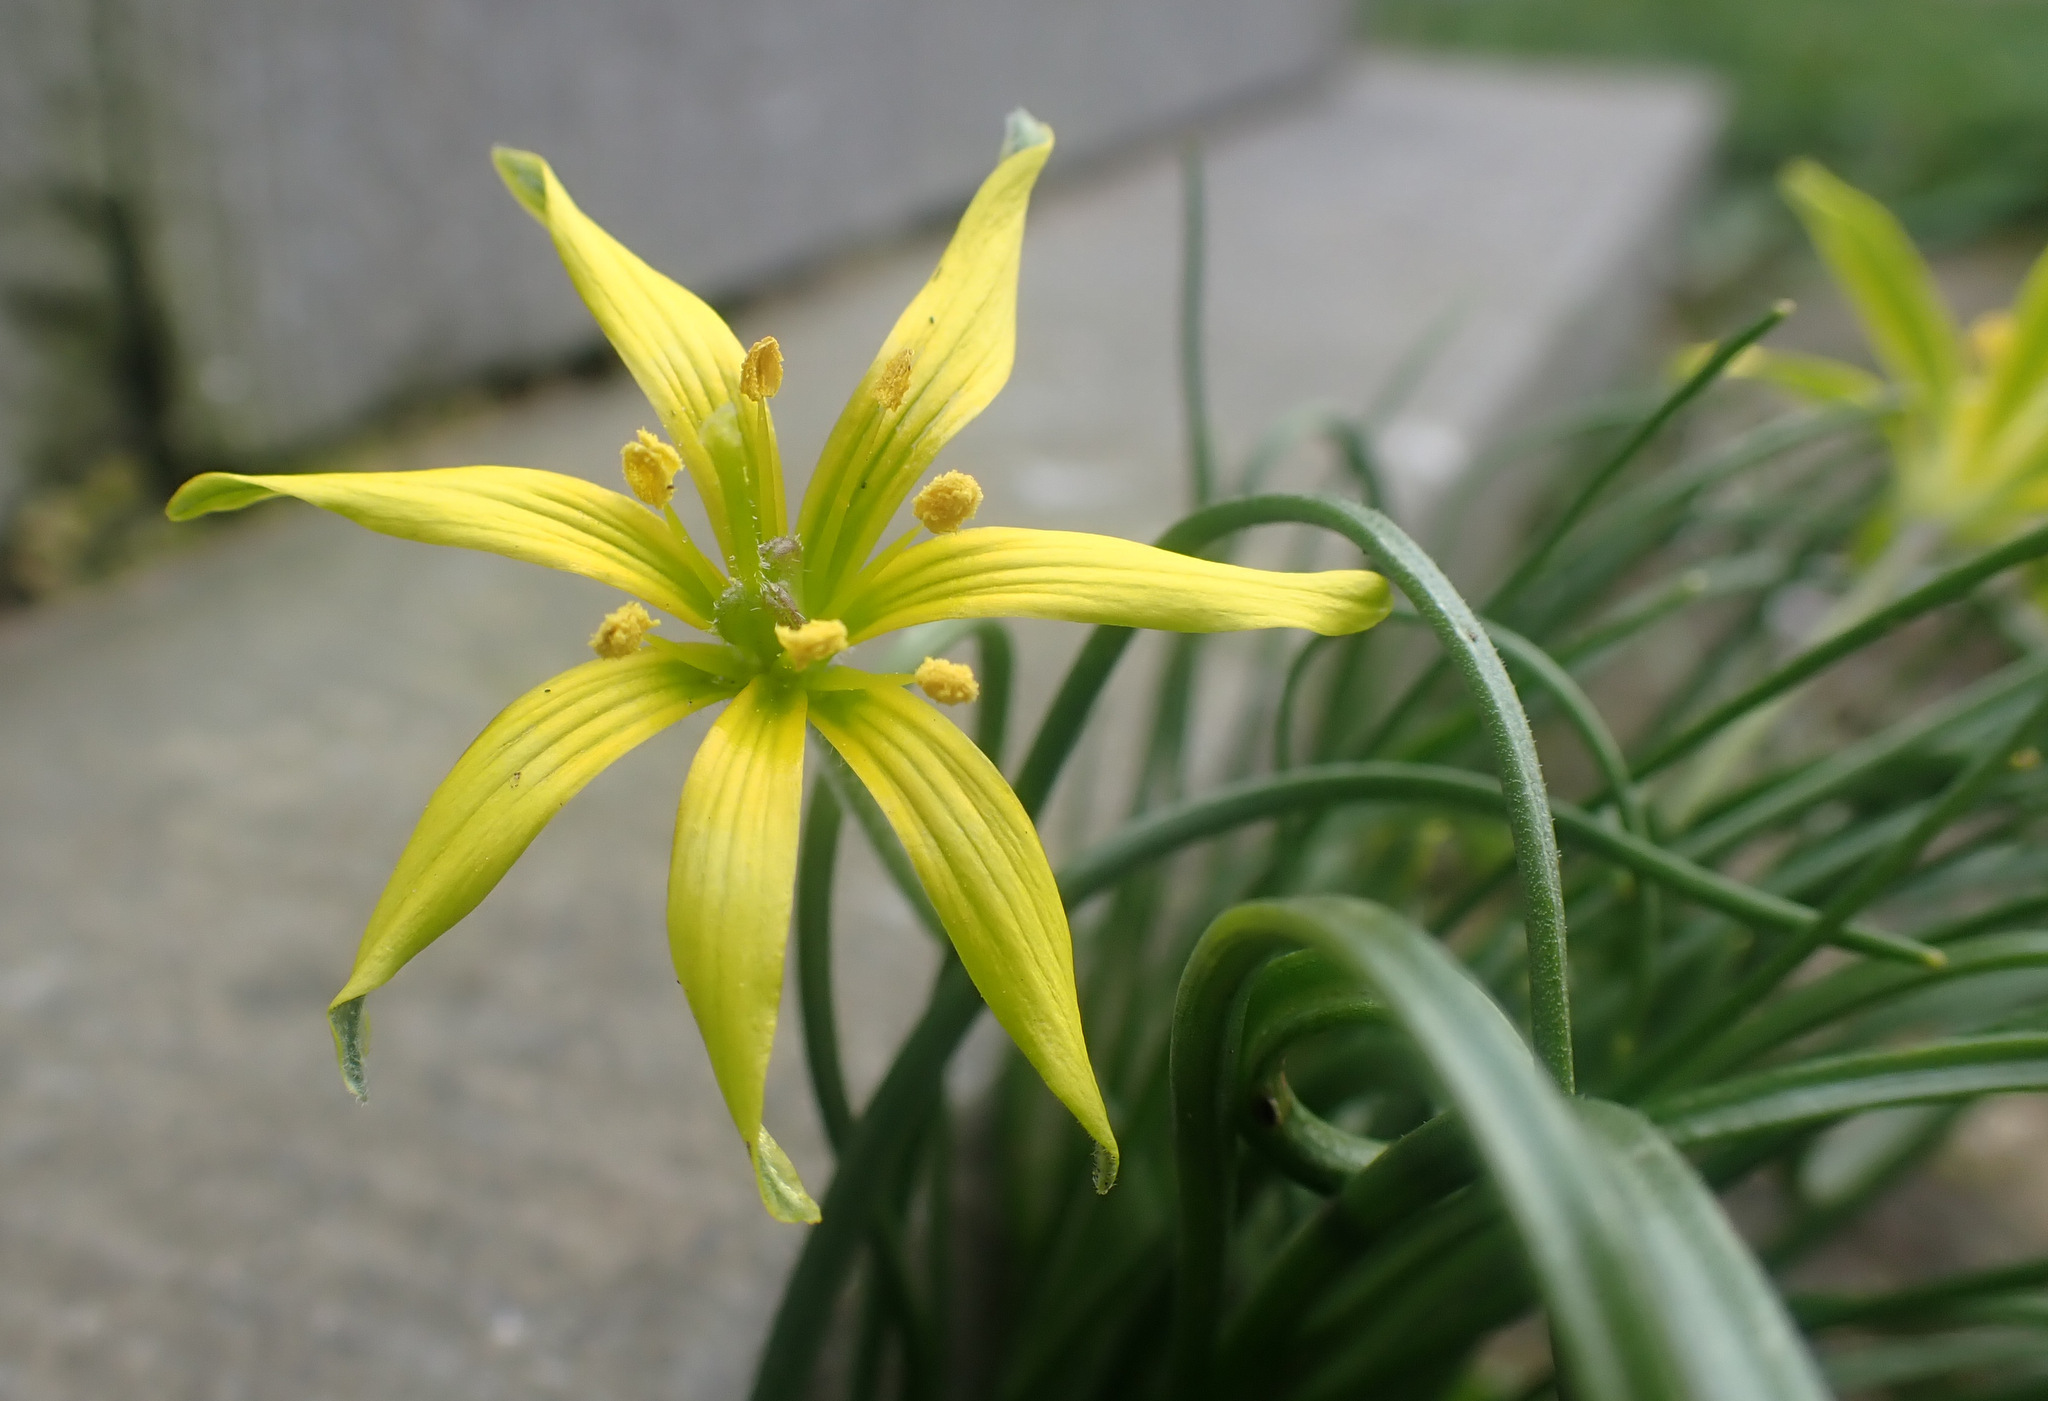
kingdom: Plantae
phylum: Tracheophyta
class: Liliopsida
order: Liliales
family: Liliaceae
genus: Gagea
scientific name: Gagea villosa
